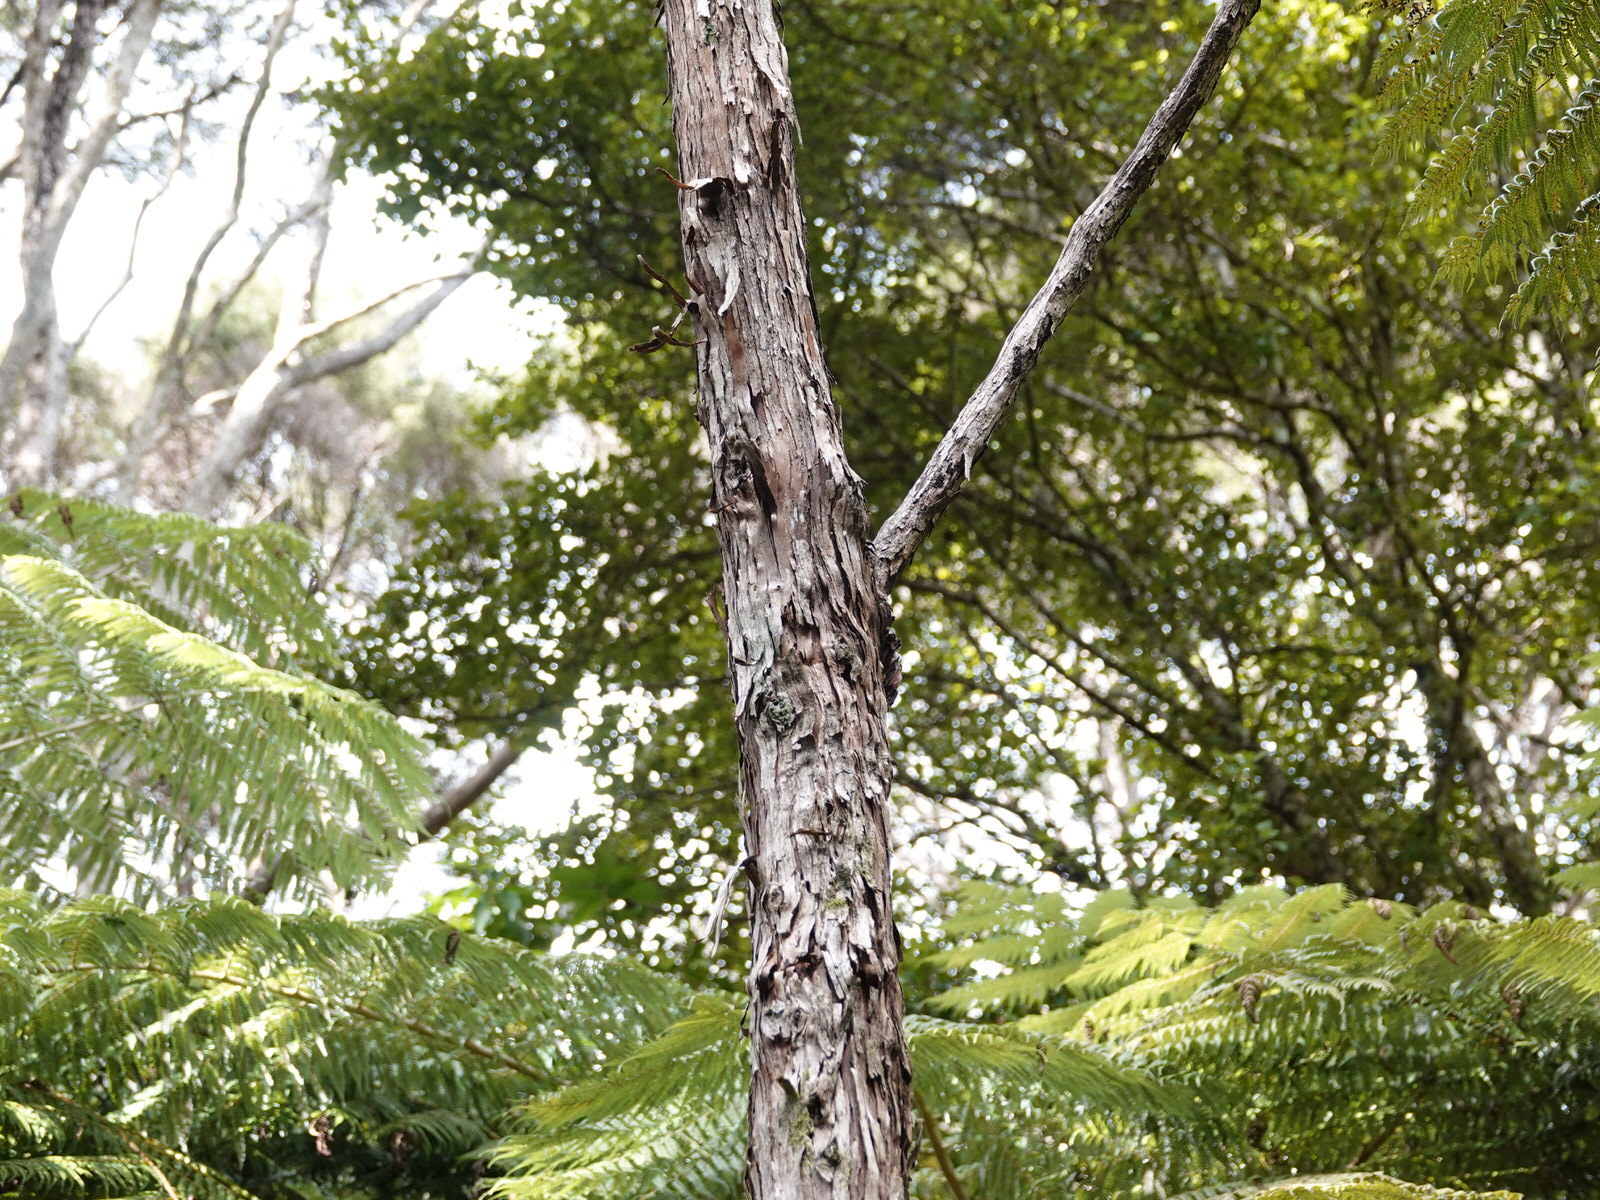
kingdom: Plantae
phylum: Tracheophyta
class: Magnoliopsida
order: Sapindales
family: Sapindaceae
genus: Dodonaea
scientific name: Dodonaea viscosa
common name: Hopbush
